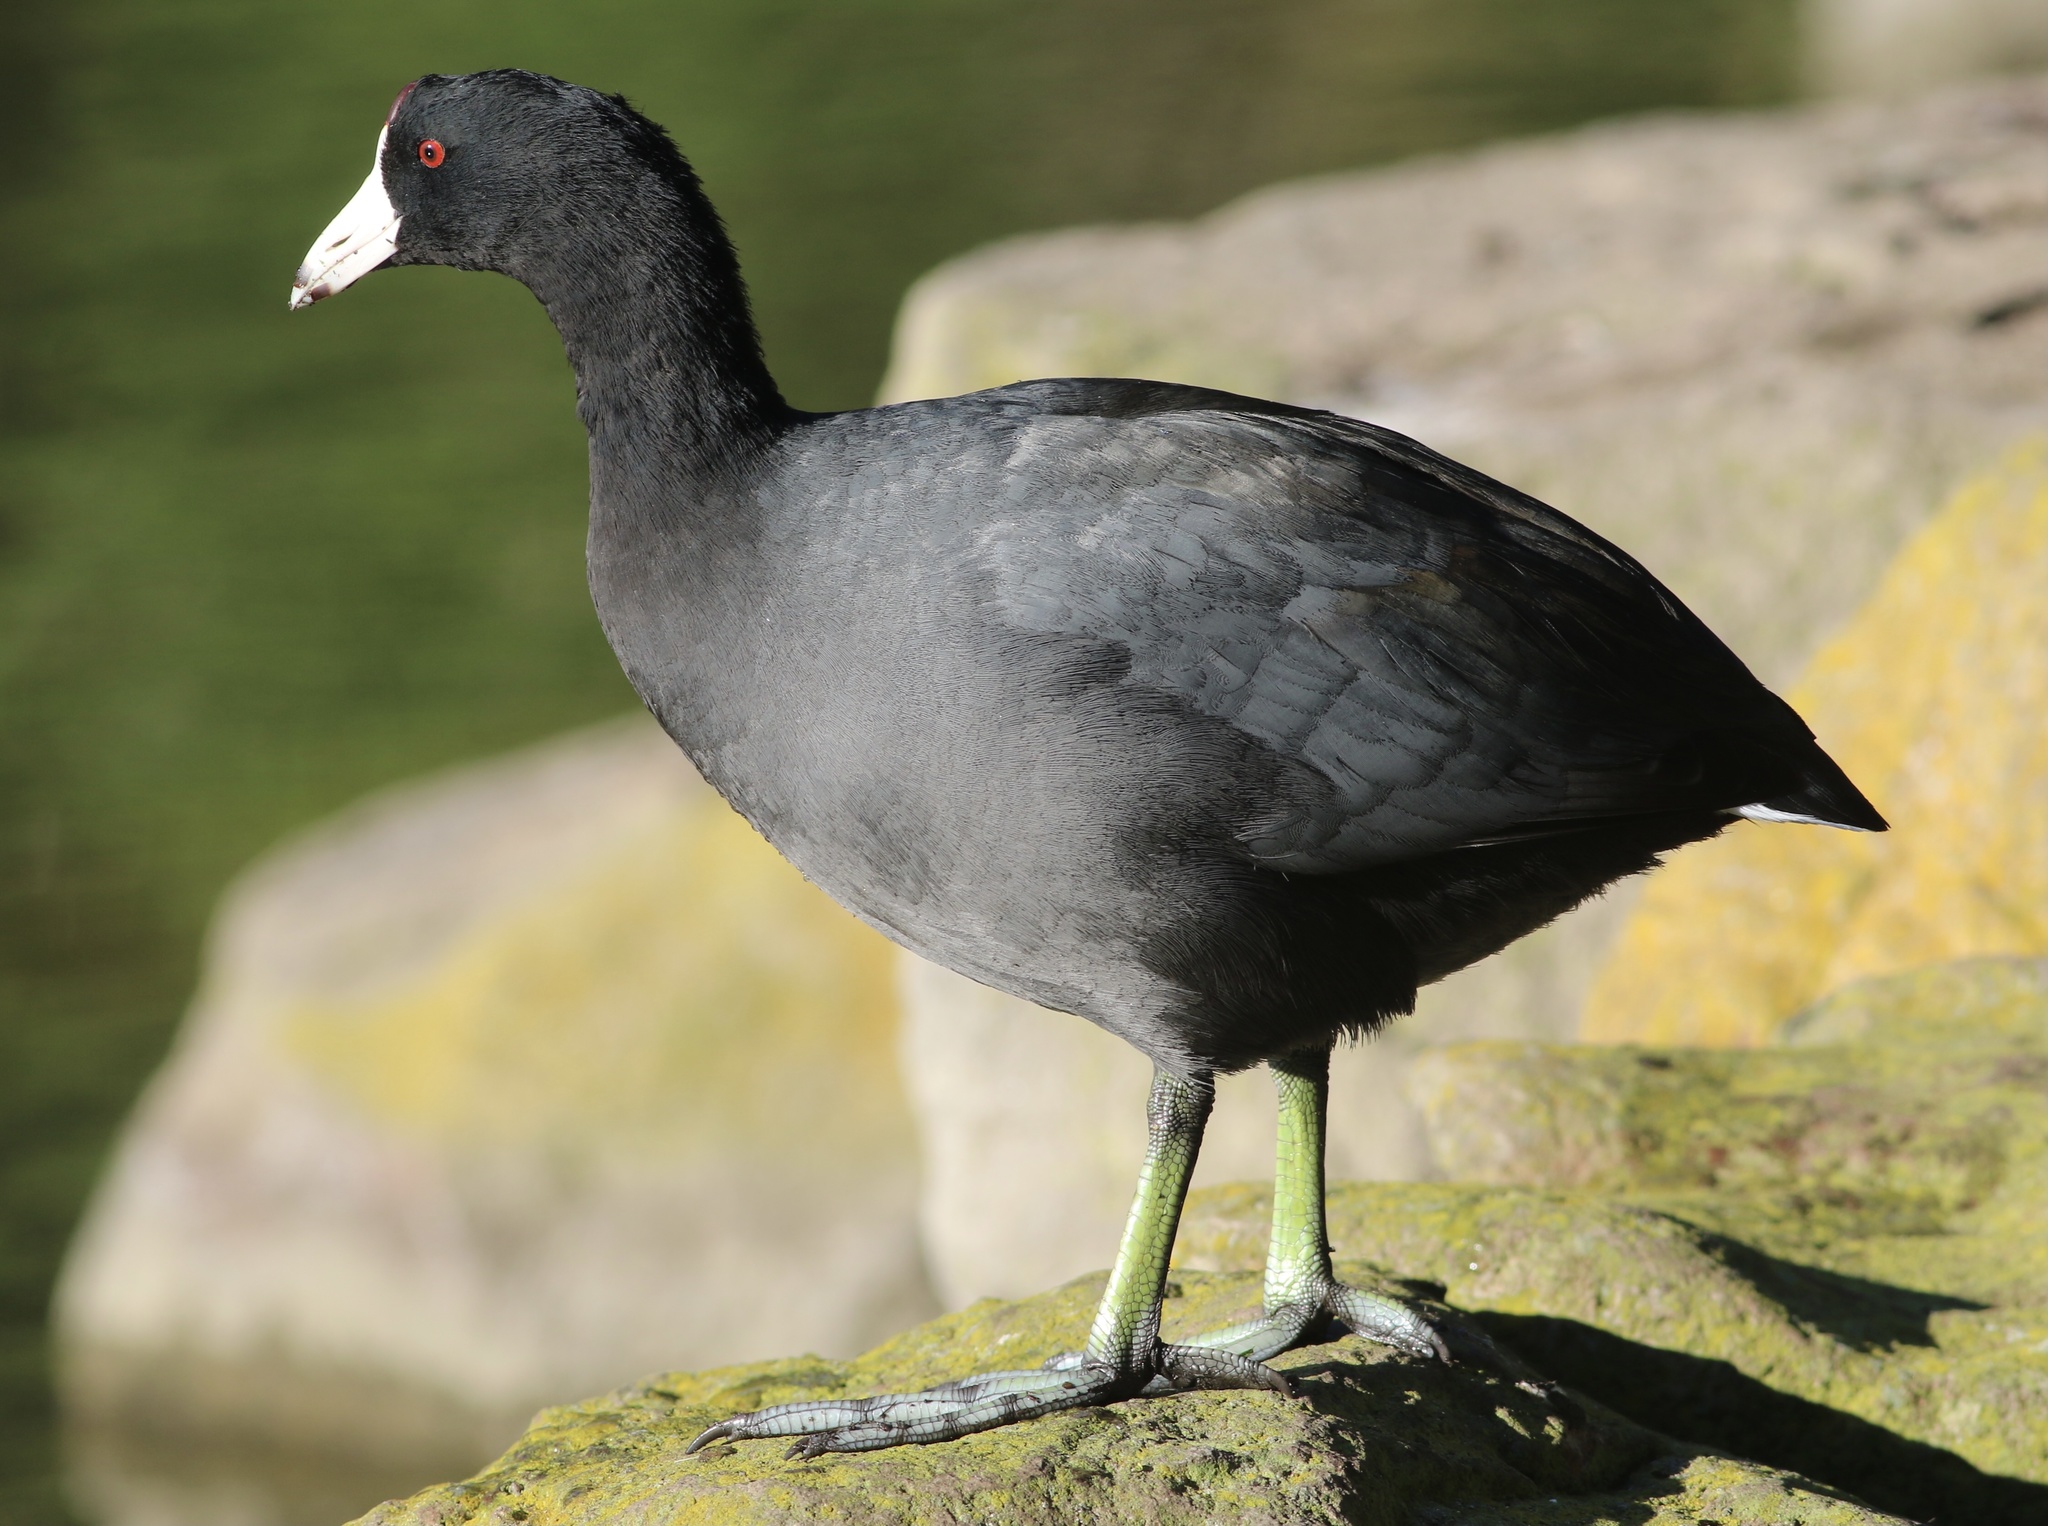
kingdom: Animalia
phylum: Chordata
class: Aves
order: Gruiformes
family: Rallidae
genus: Fulica
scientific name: Fulica americana
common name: American coot
